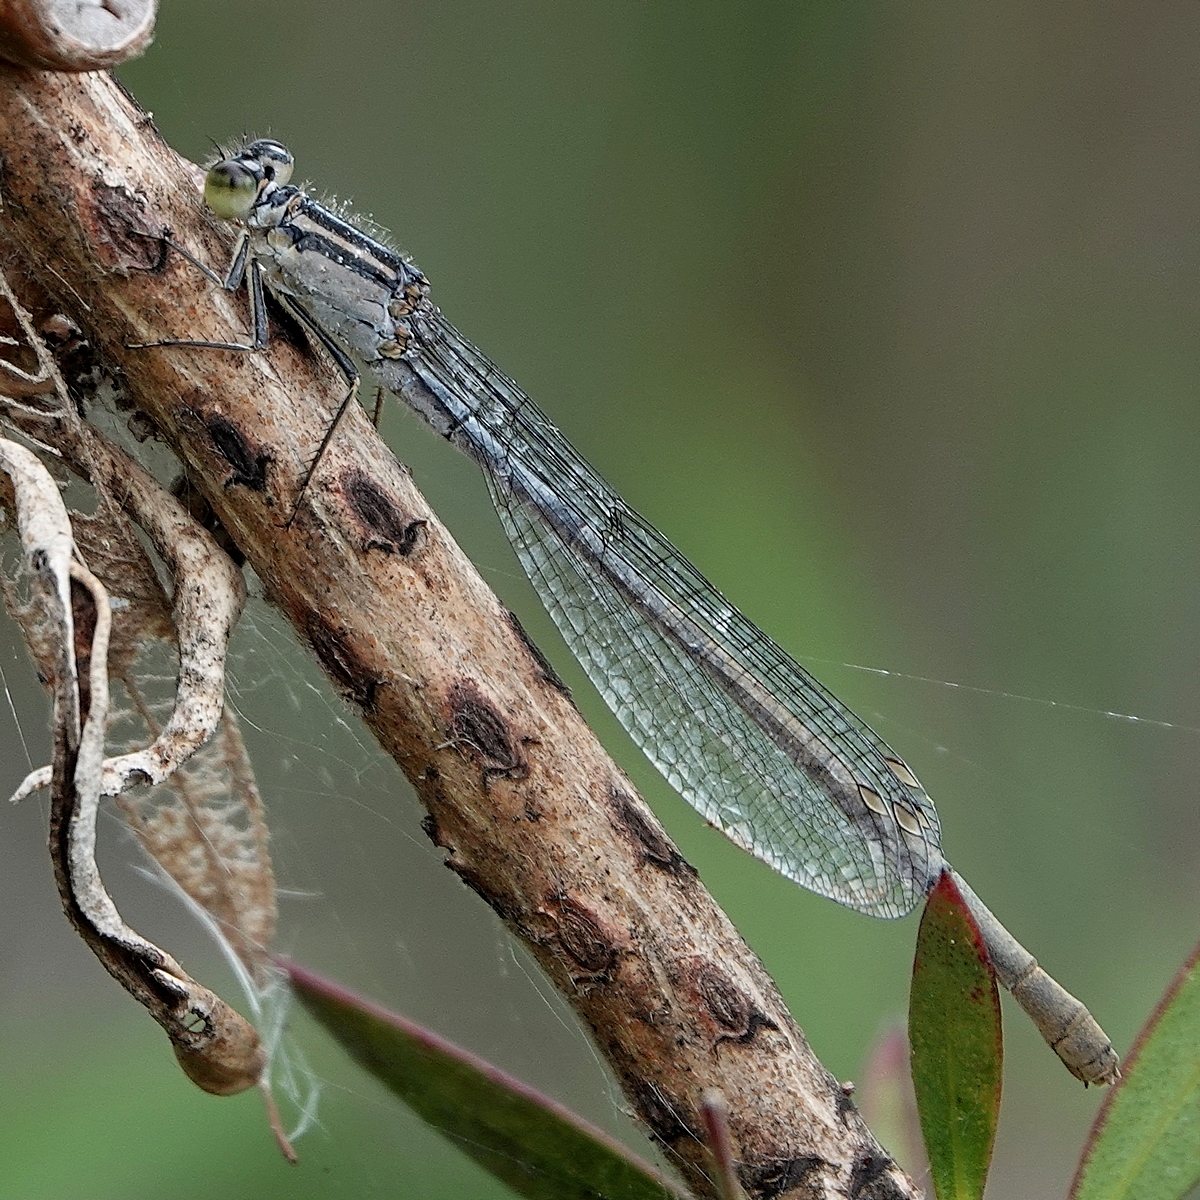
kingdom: Animalia
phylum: Arthropoda
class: Insecta
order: Odonata
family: Coenagrionidae
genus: Ischnura
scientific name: Ischnura heterosticta
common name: Common bluetail
